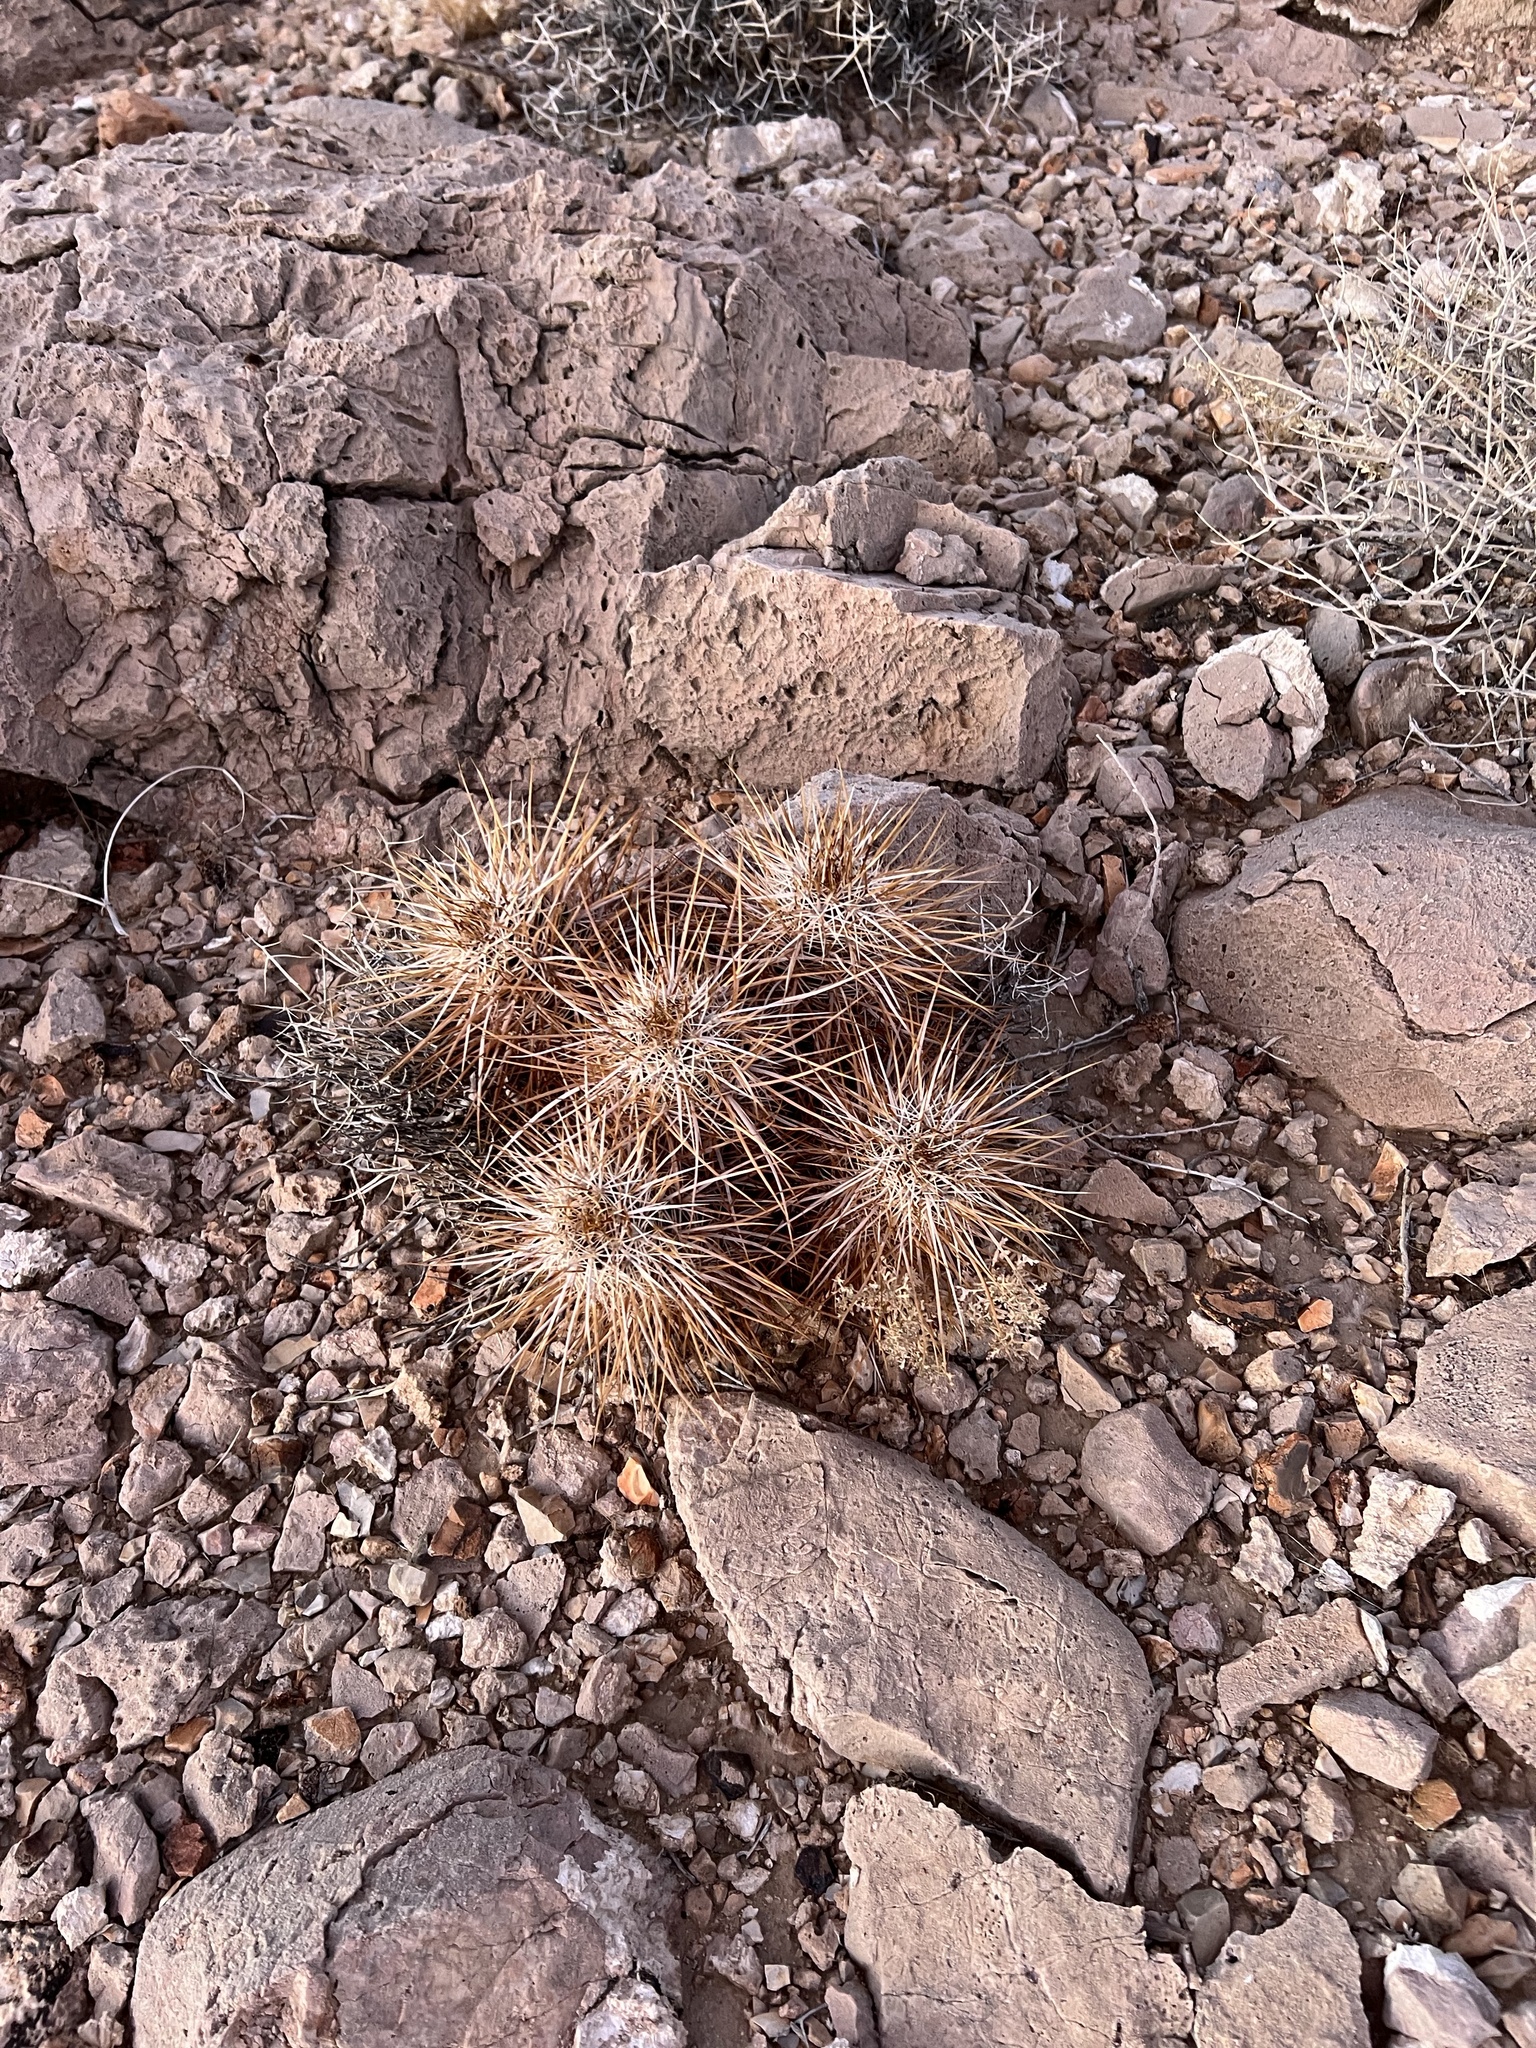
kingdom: Plantae
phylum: Tracheophyta
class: Magnoliopsida
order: Caryophyllales
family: Cactaceae
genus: Echinocereus
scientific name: Echinocereus engelmannii
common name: Engelmann's hedgehog cactus
